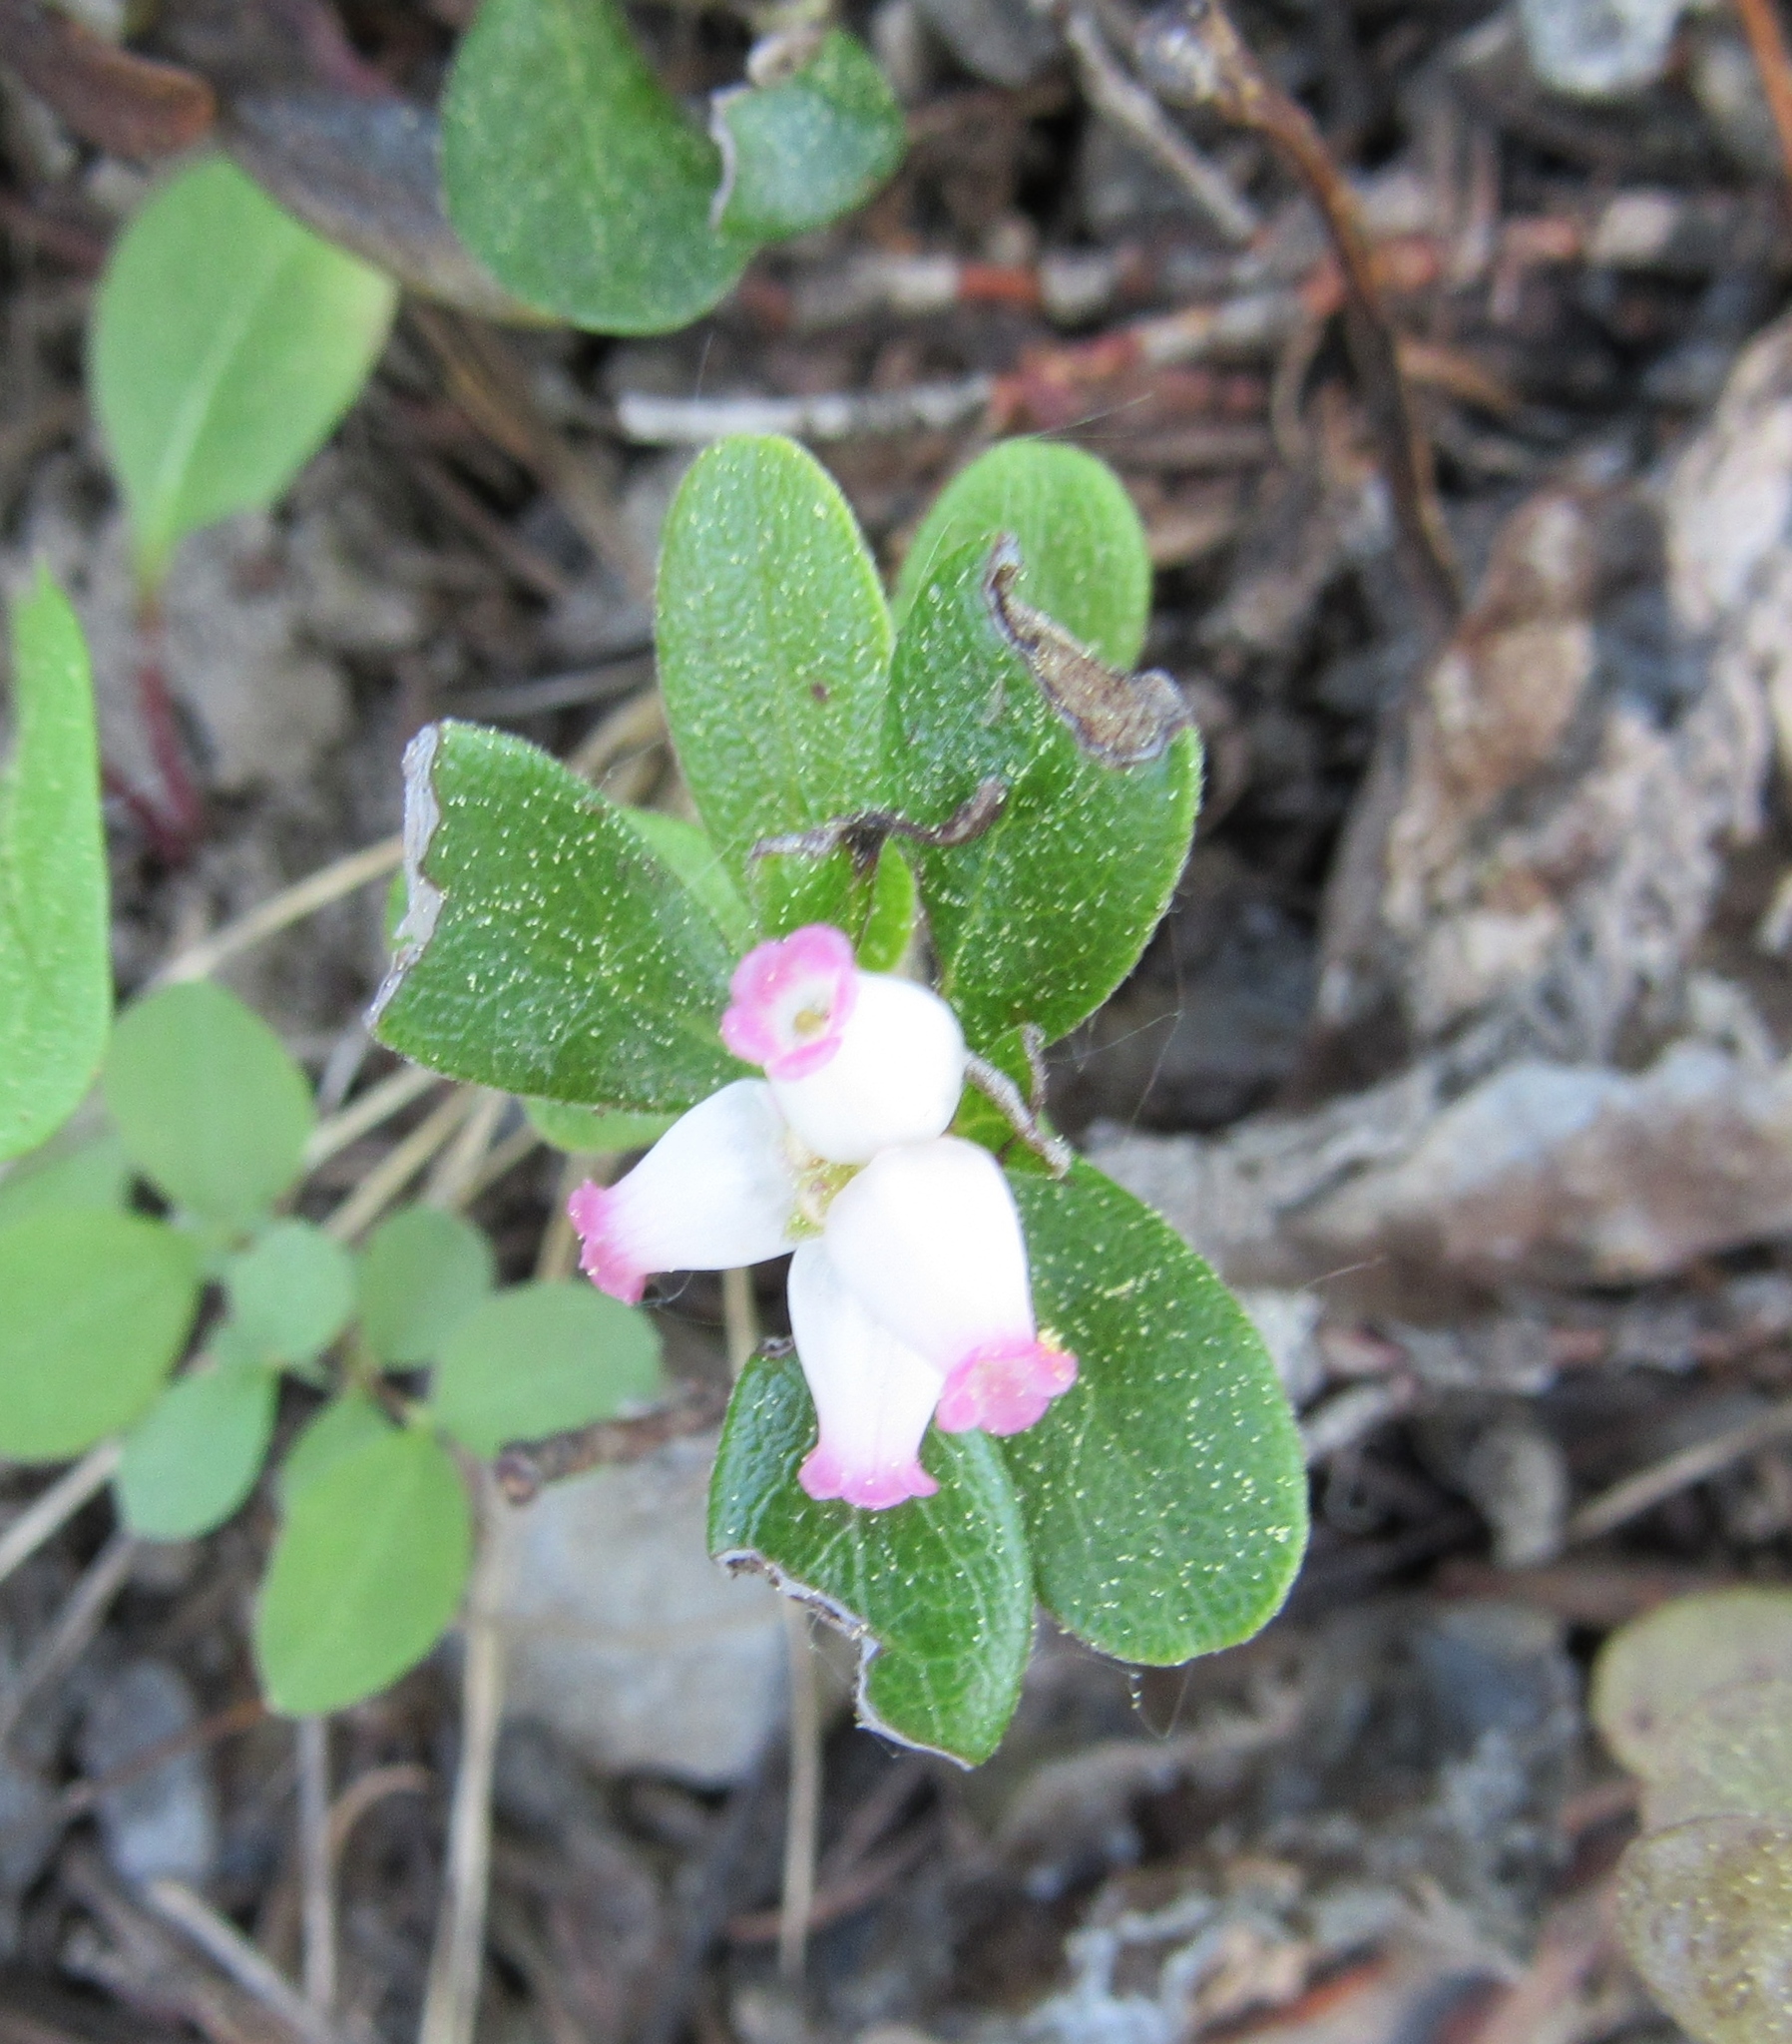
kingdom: Plantae
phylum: Tracheophyta
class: Magnoliopsida
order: Ericales
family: Ericaceae
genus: Arctostaphylos
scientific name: Arctostaphylos uva-ursi
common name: Bearberry
